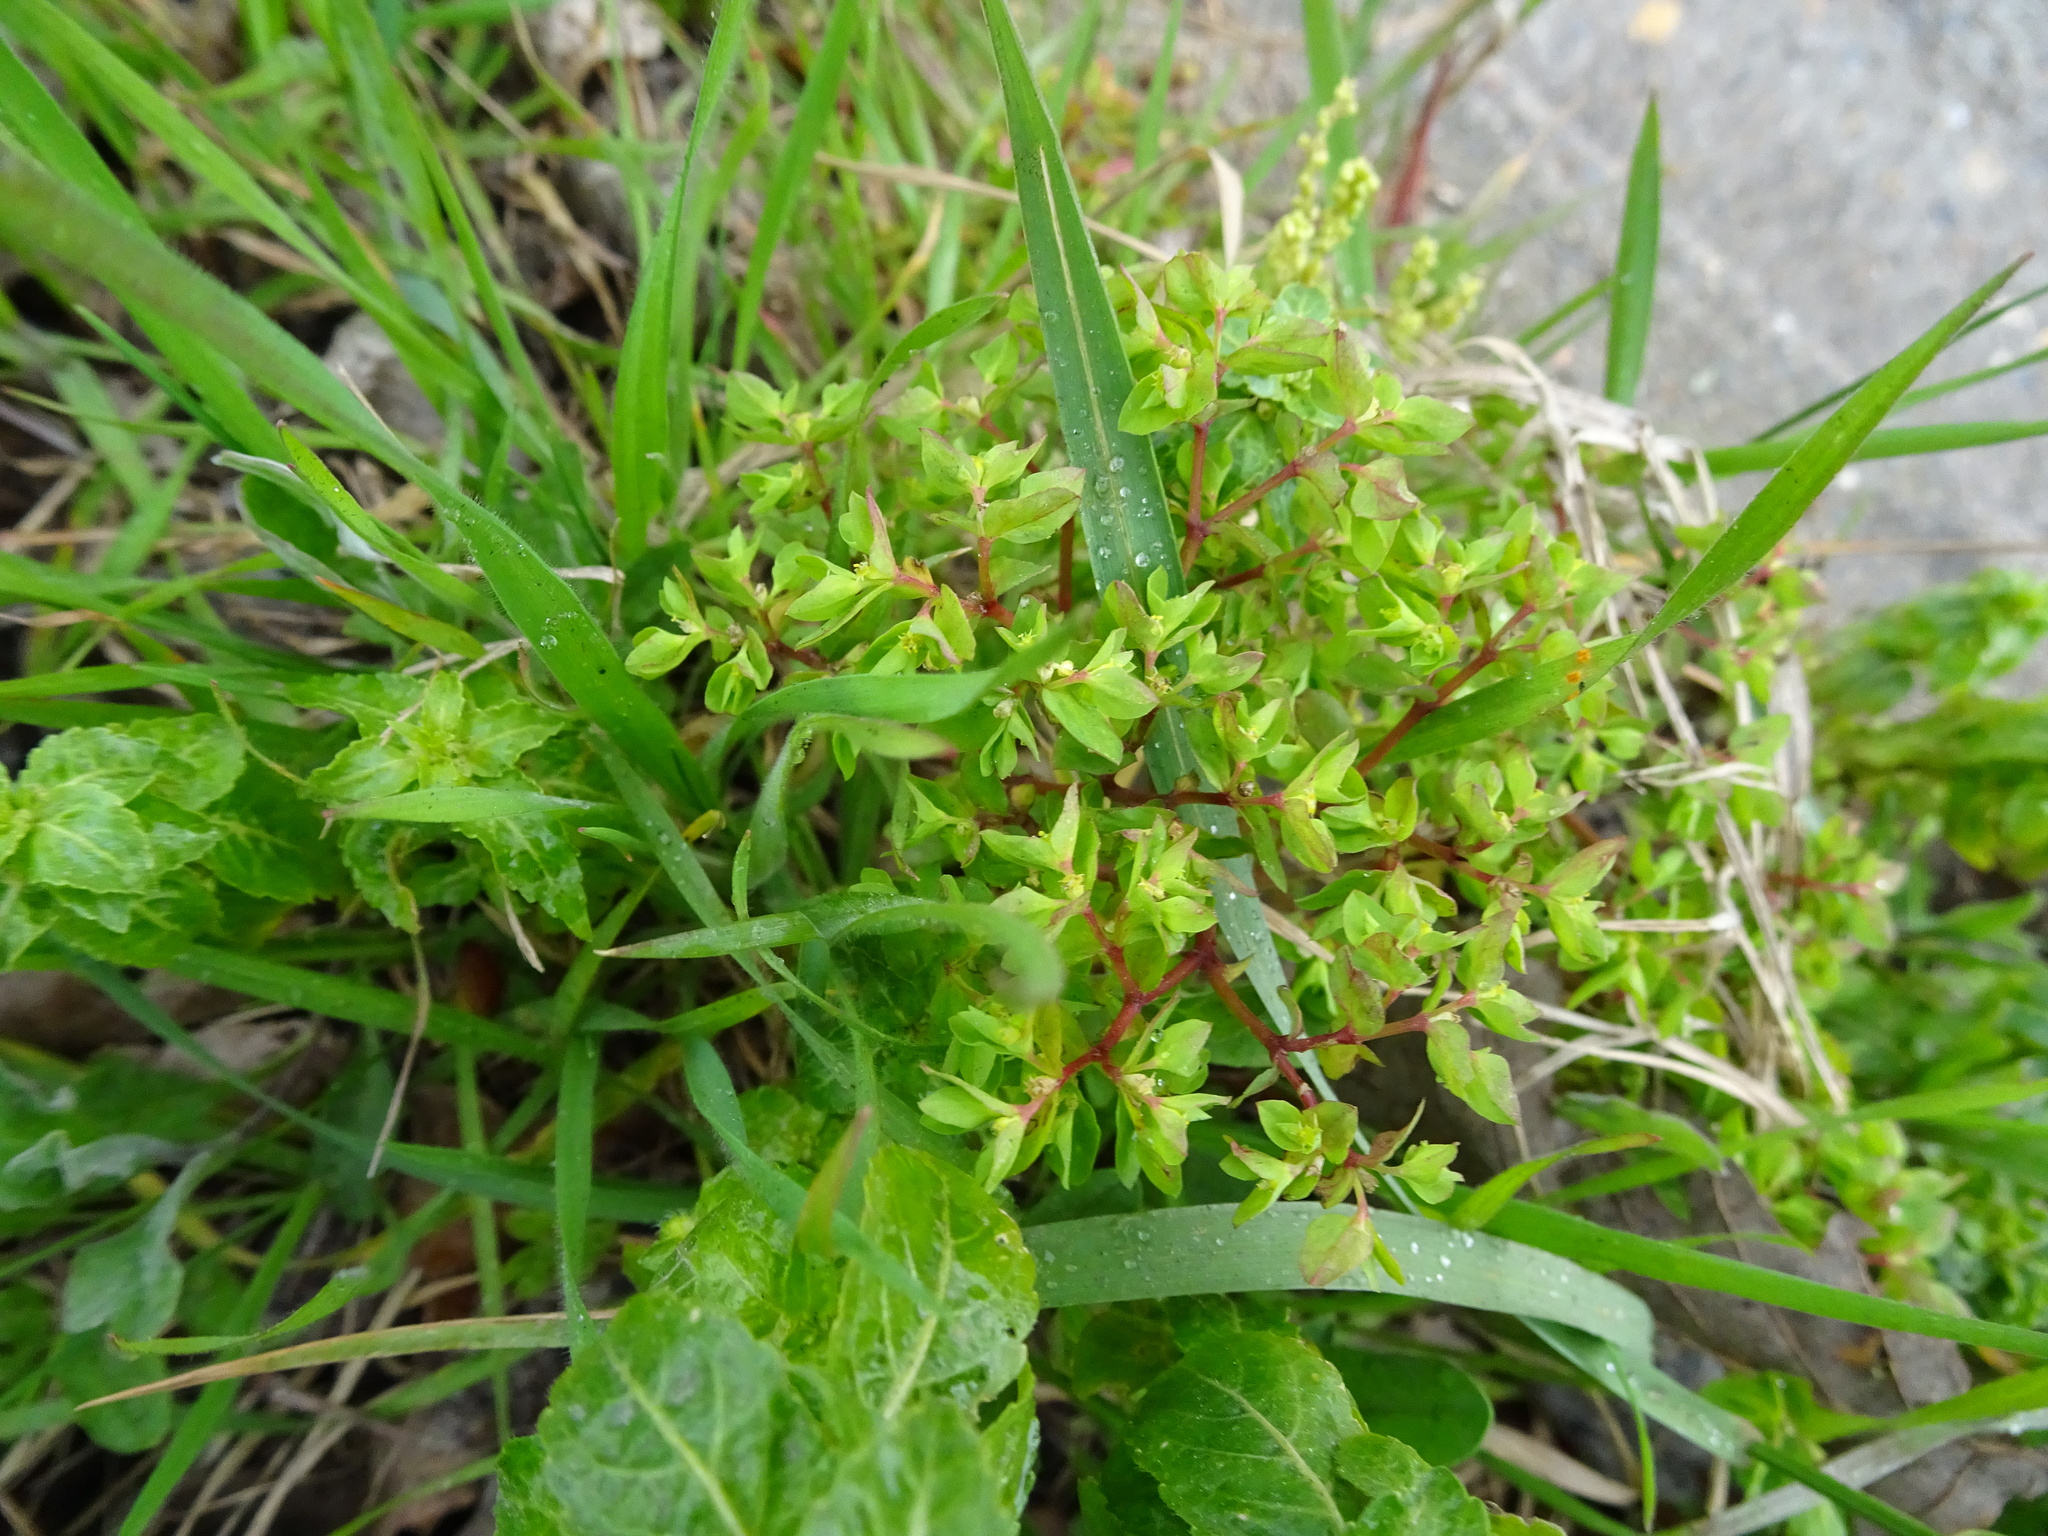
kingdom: Plantae
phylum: Tracheophyta
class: Magnoliopsida
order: Malpighiales
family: Euphorbiaceae
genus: Euphorbia
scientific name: Euphorbia peplus
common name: Petty spurge
